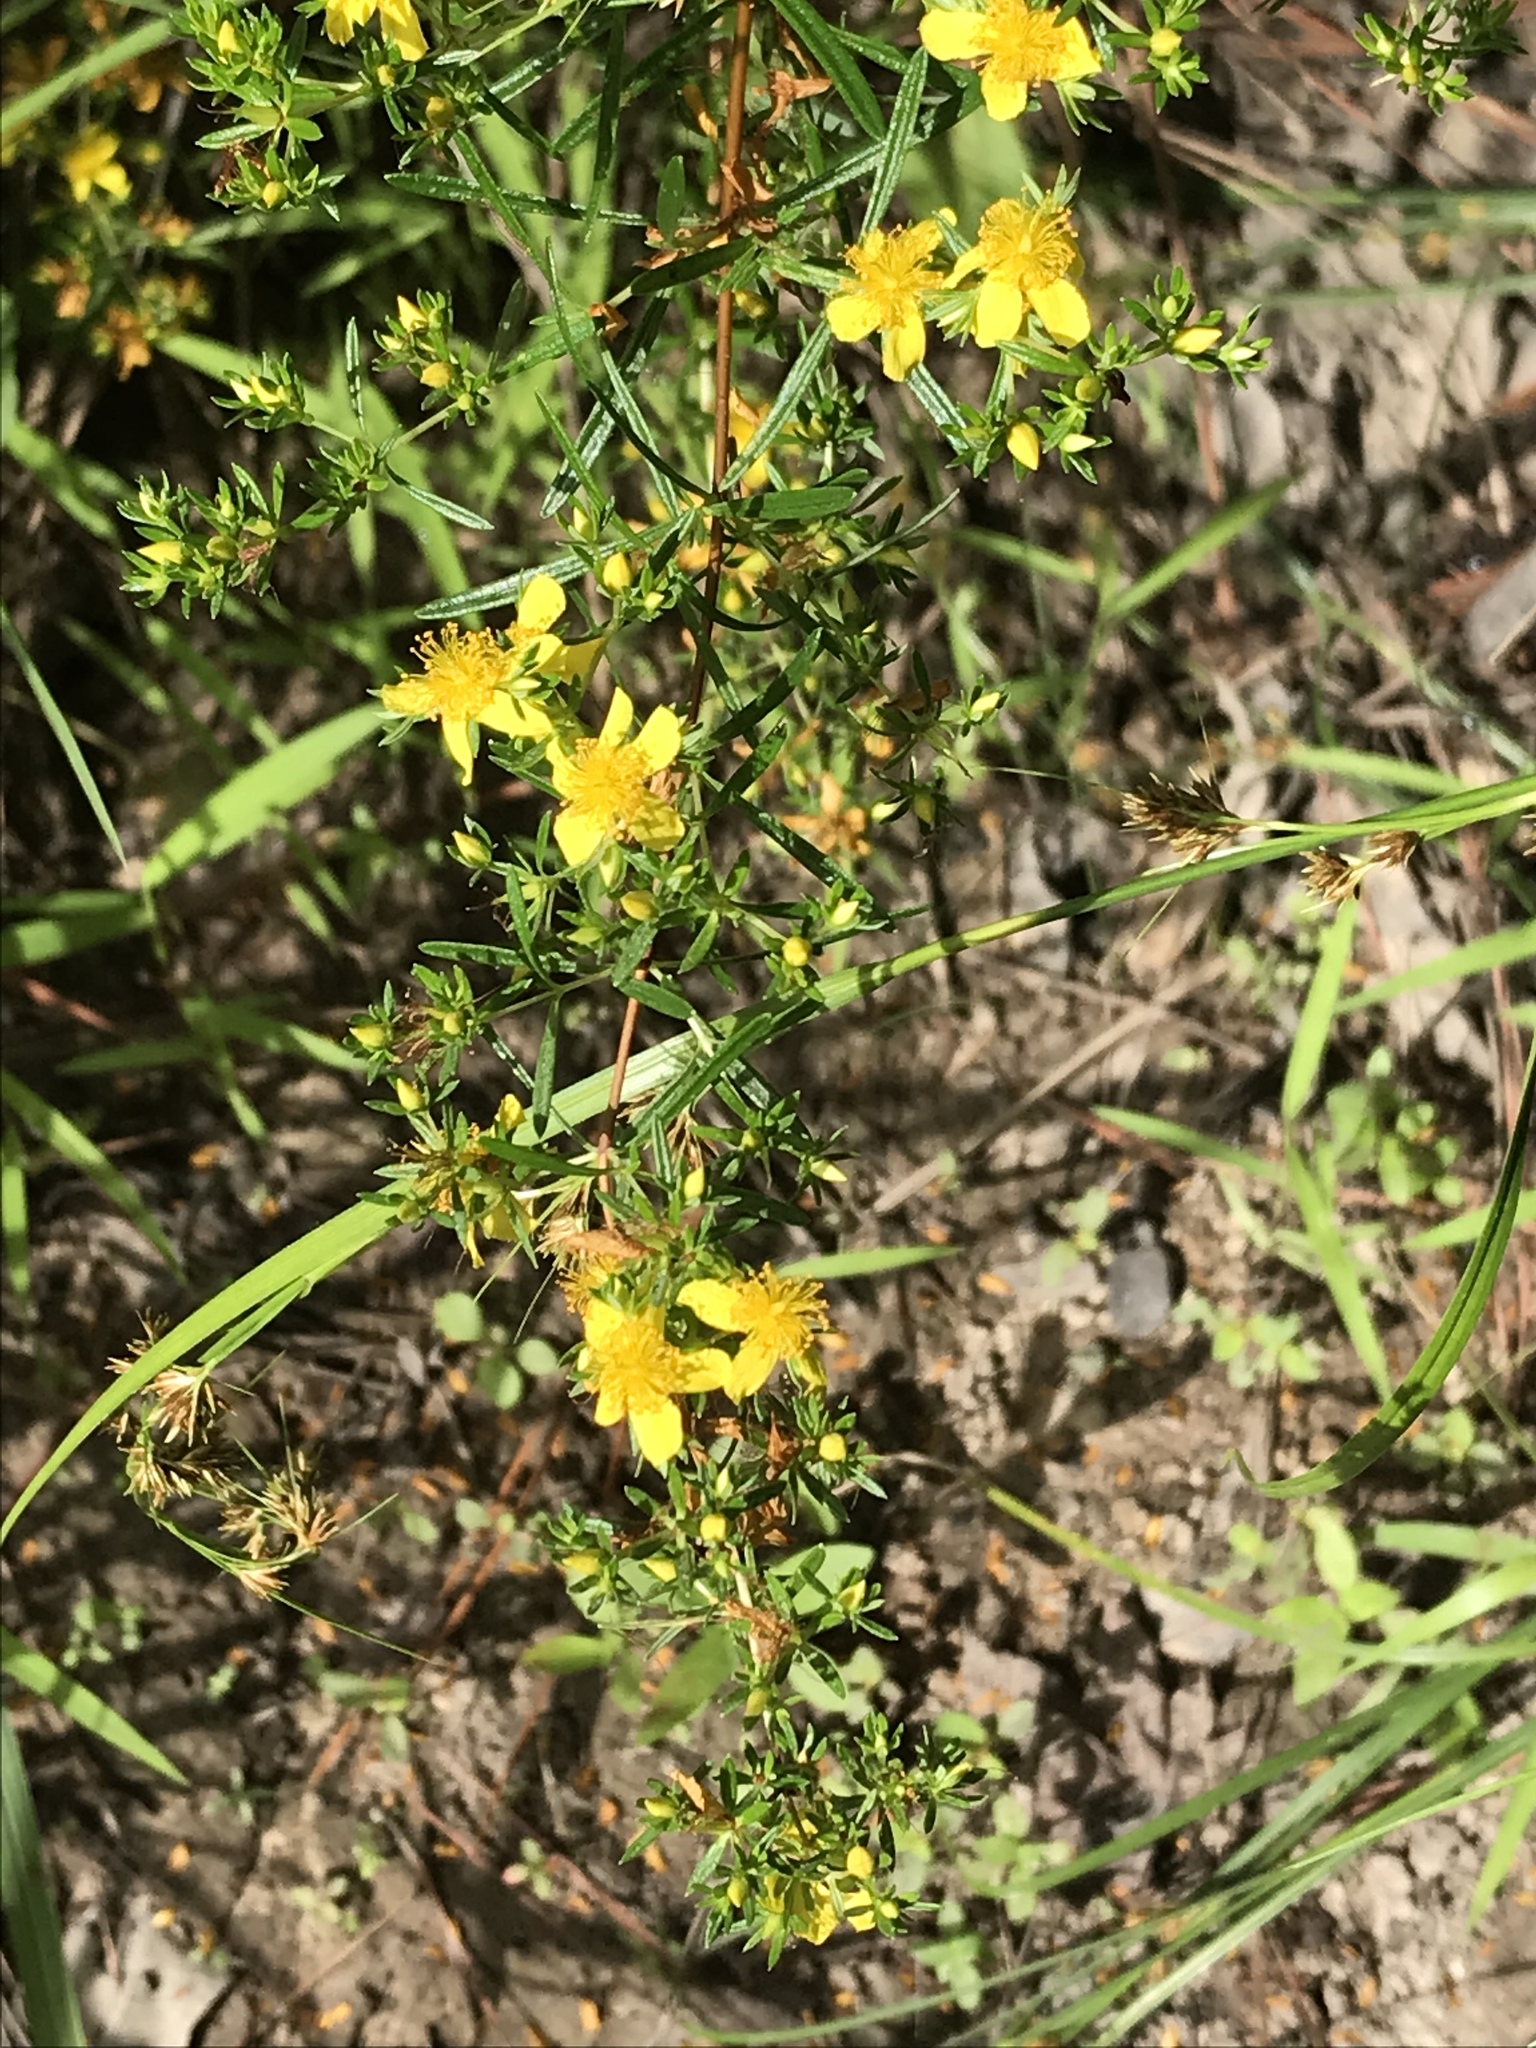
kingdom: Plantae
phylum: Tracheophyta
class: Magnoliopsida
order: Malpighiales
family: Hypericaceae
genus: Hypericum
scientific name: Hypericum galioides
